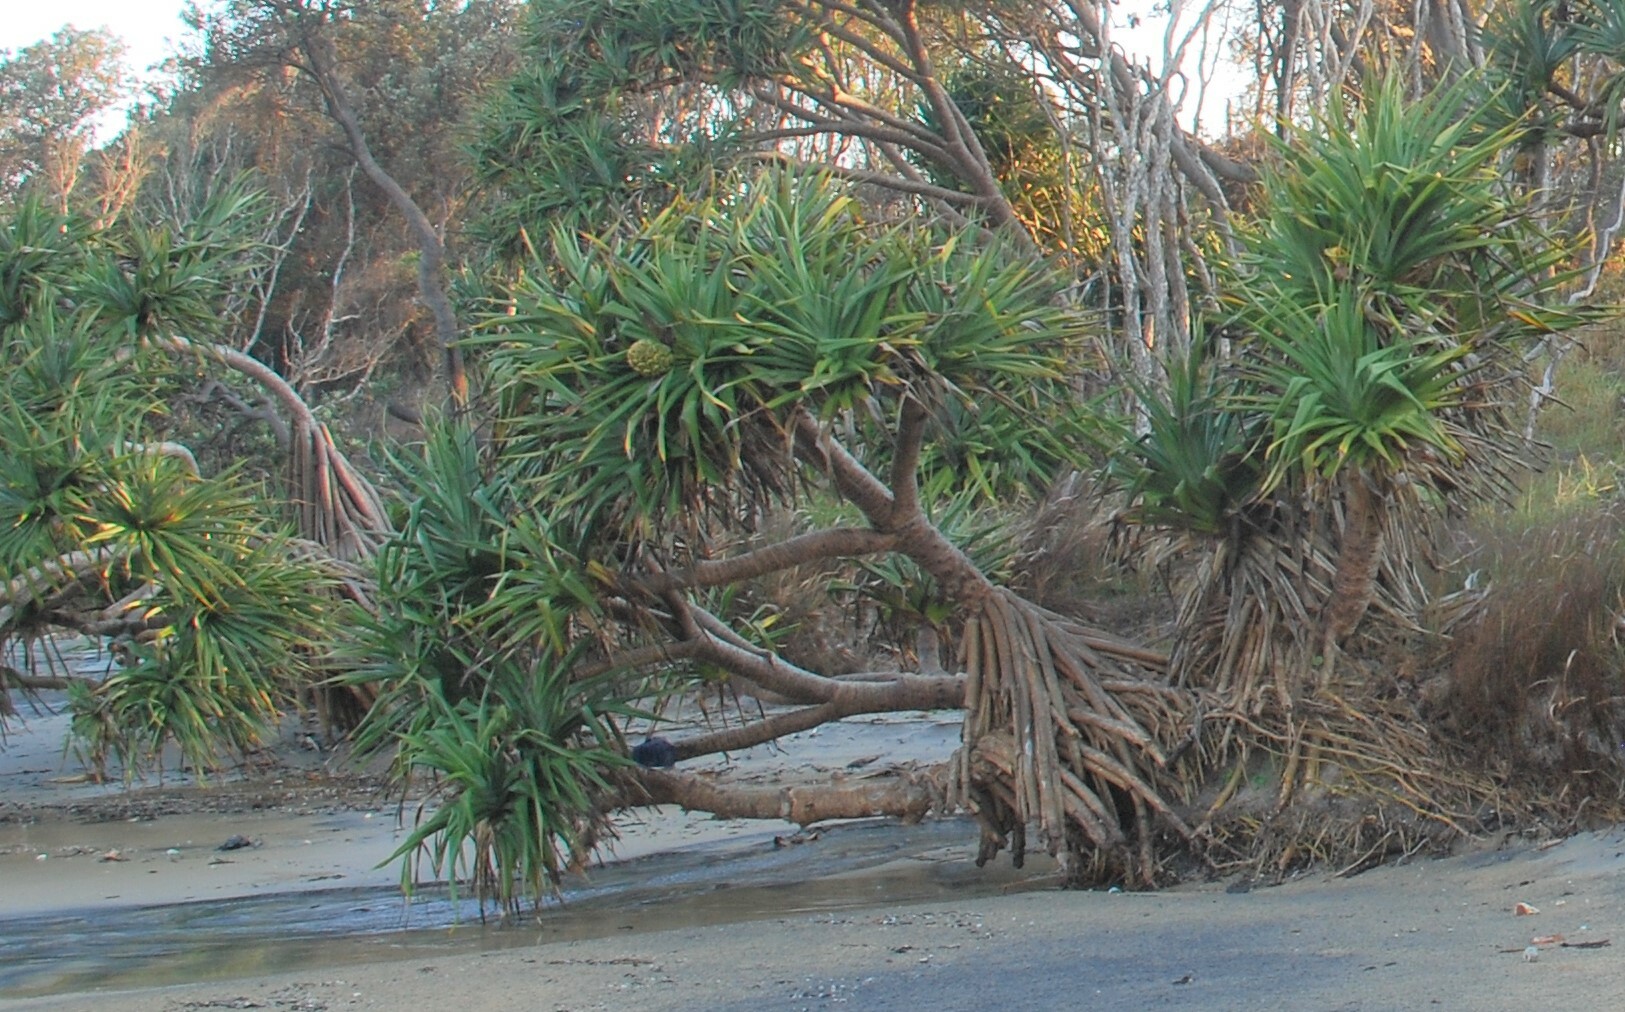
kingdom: Plantae
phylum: Tracheophyta
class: Liliopsida
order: Pandanales
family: Pandanaceae
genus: Pandanus
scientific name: Pandanus tectorius
